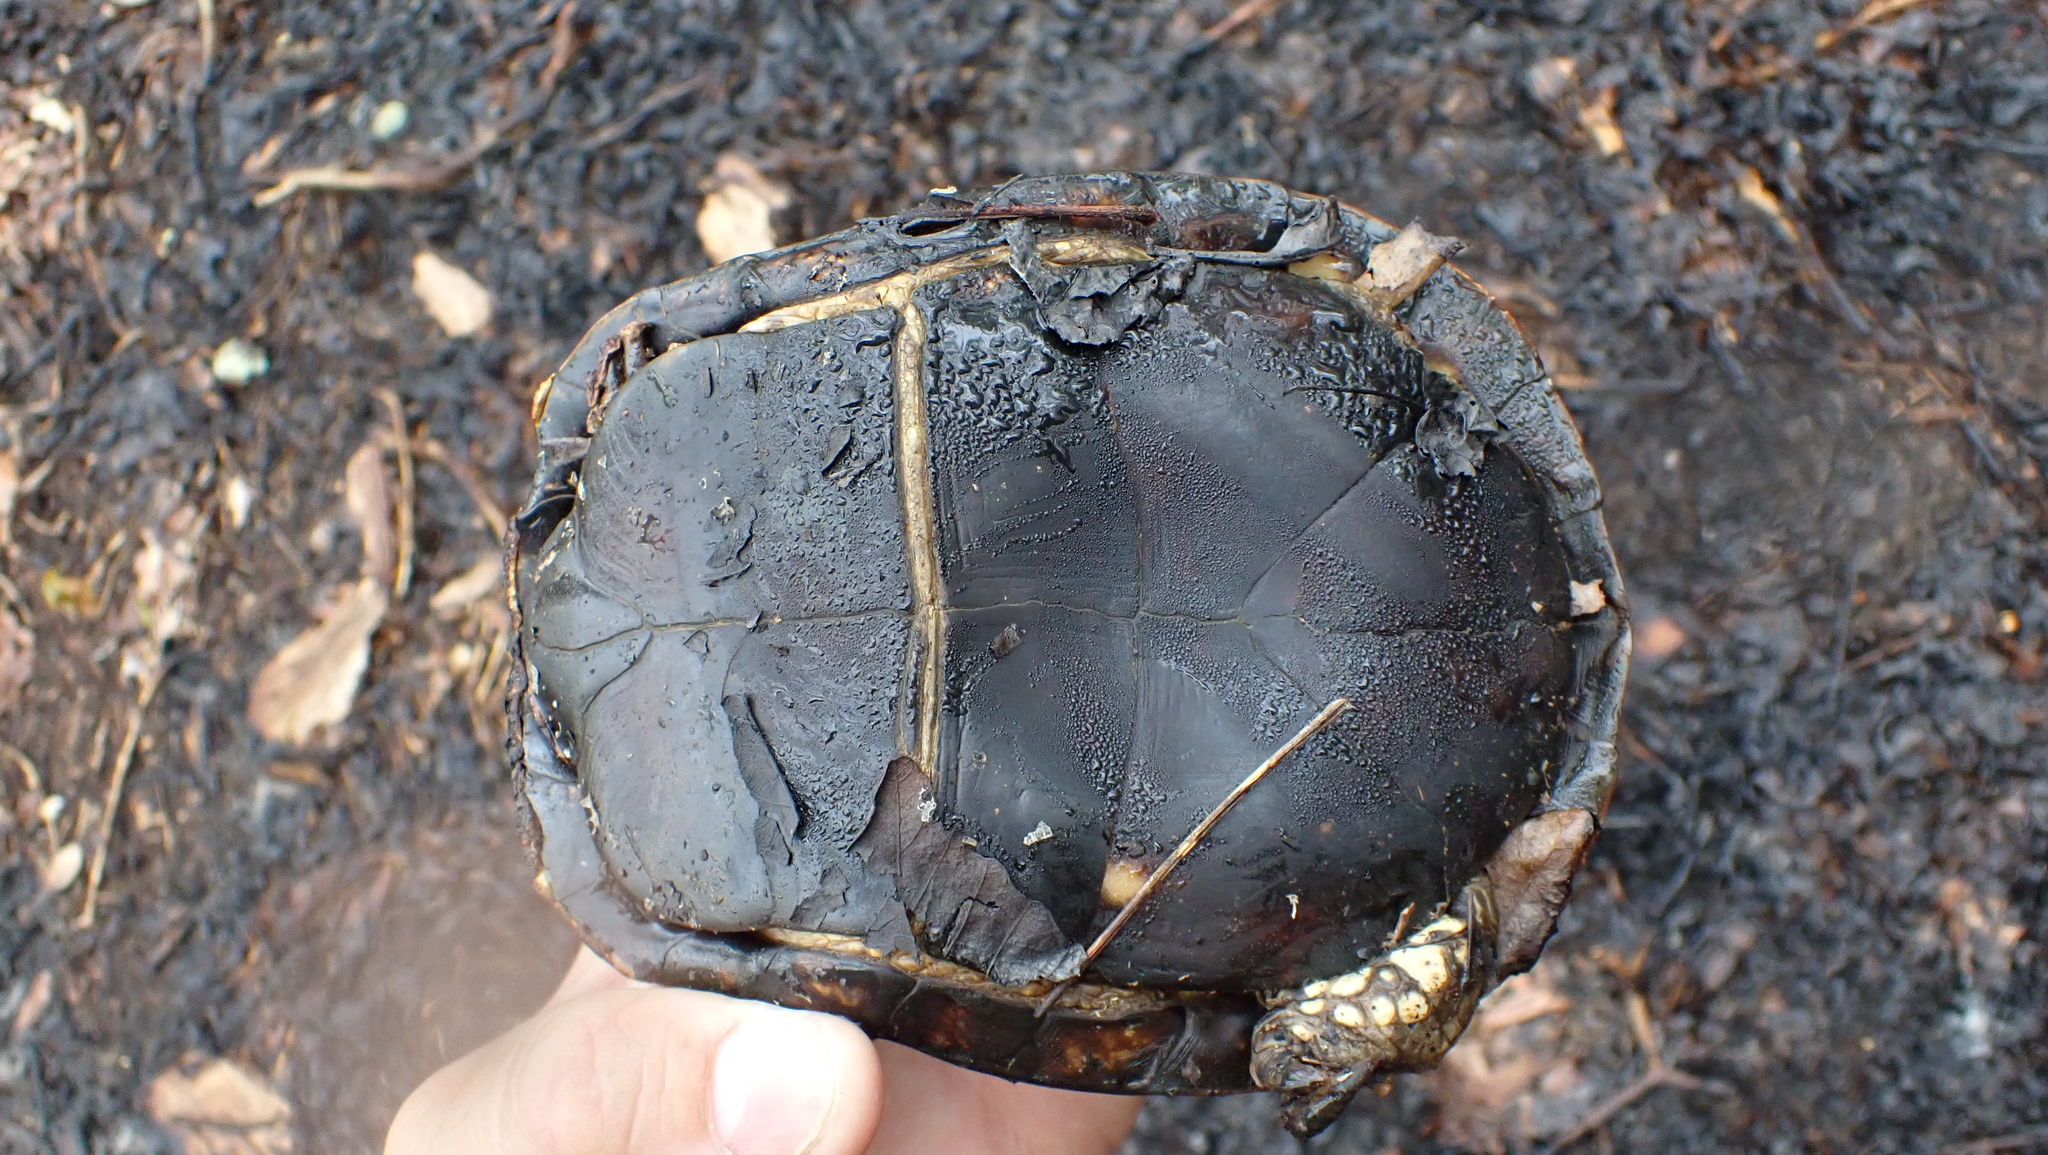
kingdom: Animalia
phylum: Chordata
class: Testudines
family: Emydidae
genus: Terrapene
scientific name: Terrapene carolina
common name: Common box turtle
